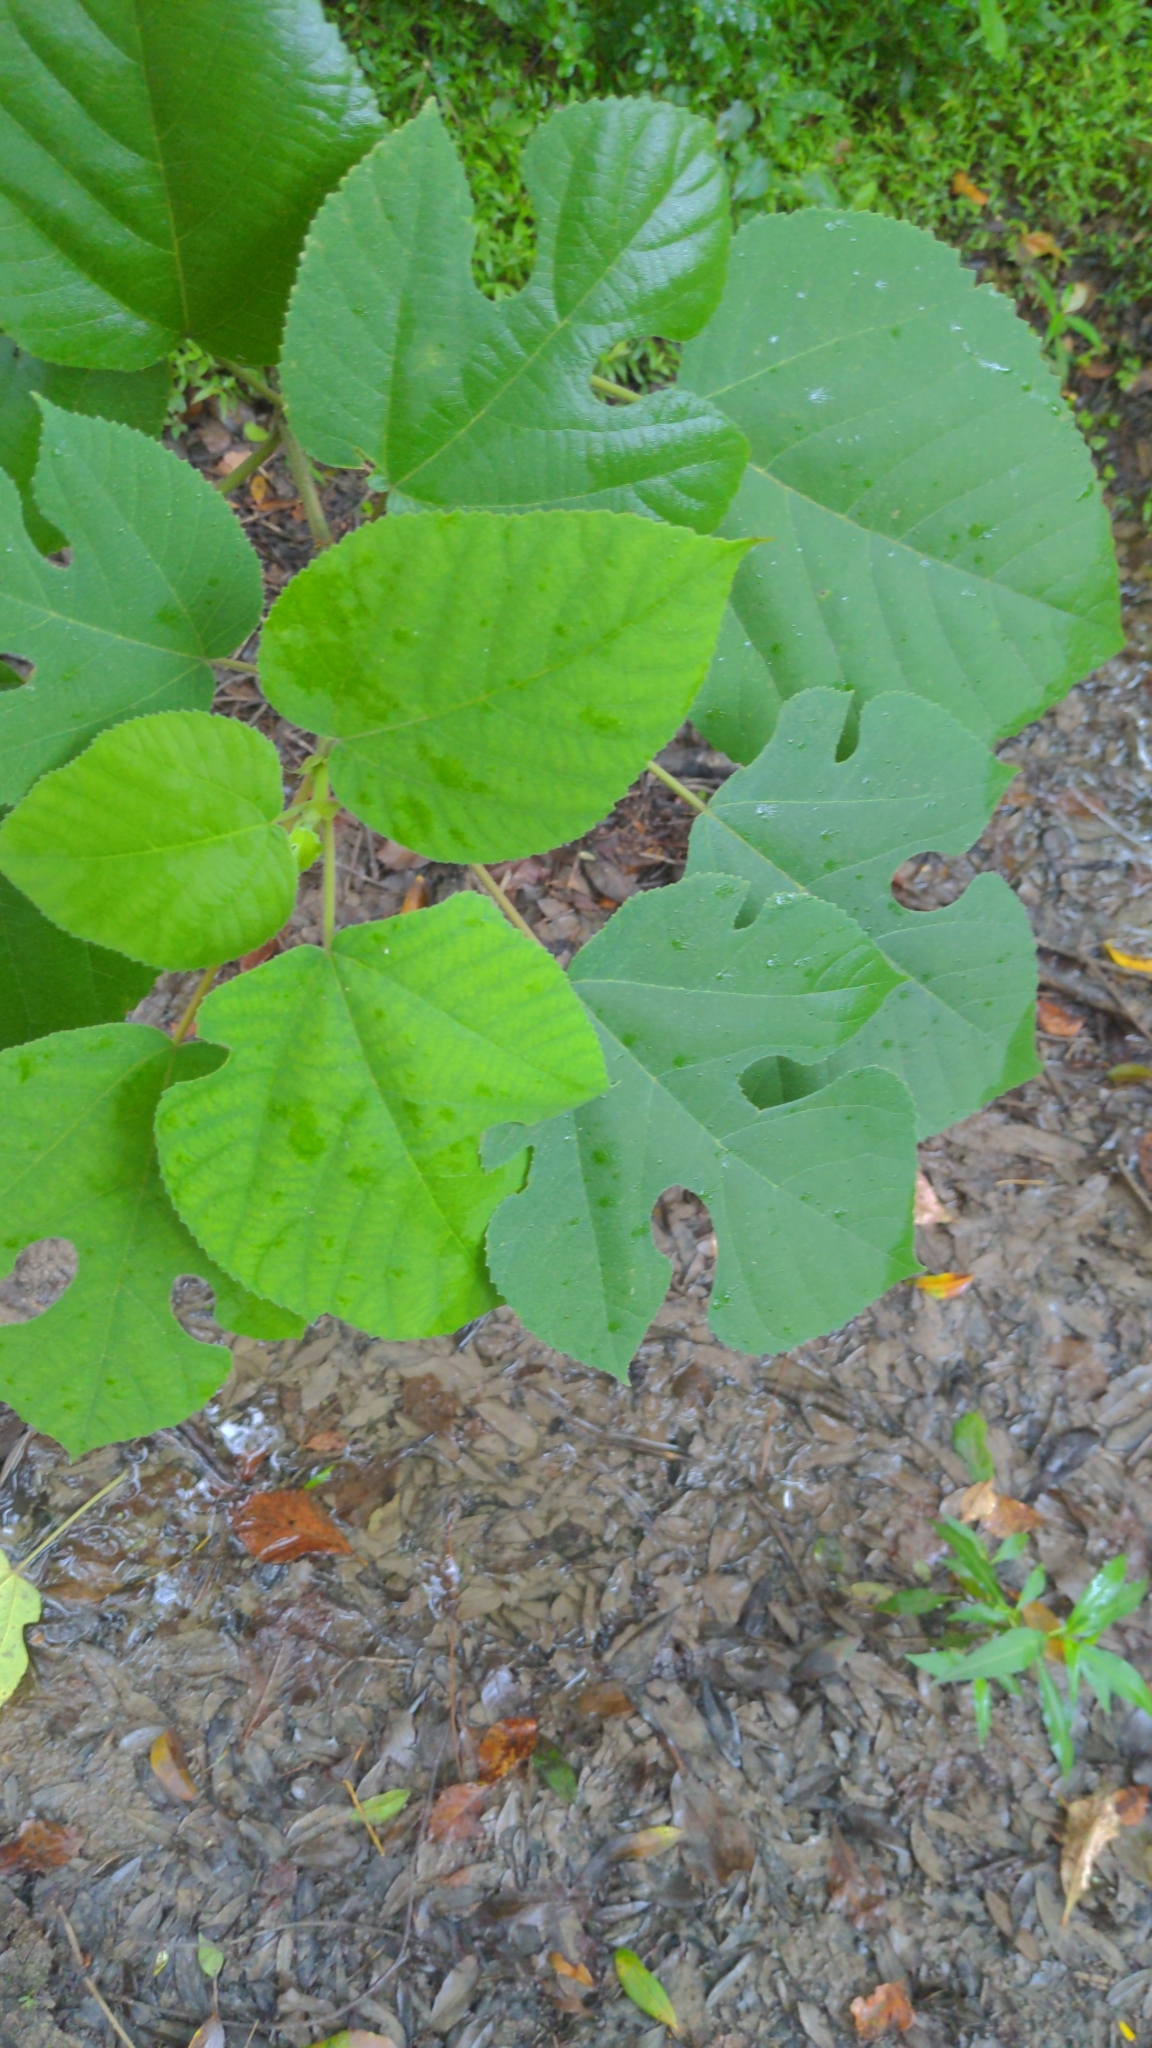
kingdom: Plantae
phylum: Tracheophyta
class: Magnoliopsida
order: Rosales
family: Moraceae
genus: Broussonetia
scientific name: Broussonetia papyrifera
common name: Paper mulberry
